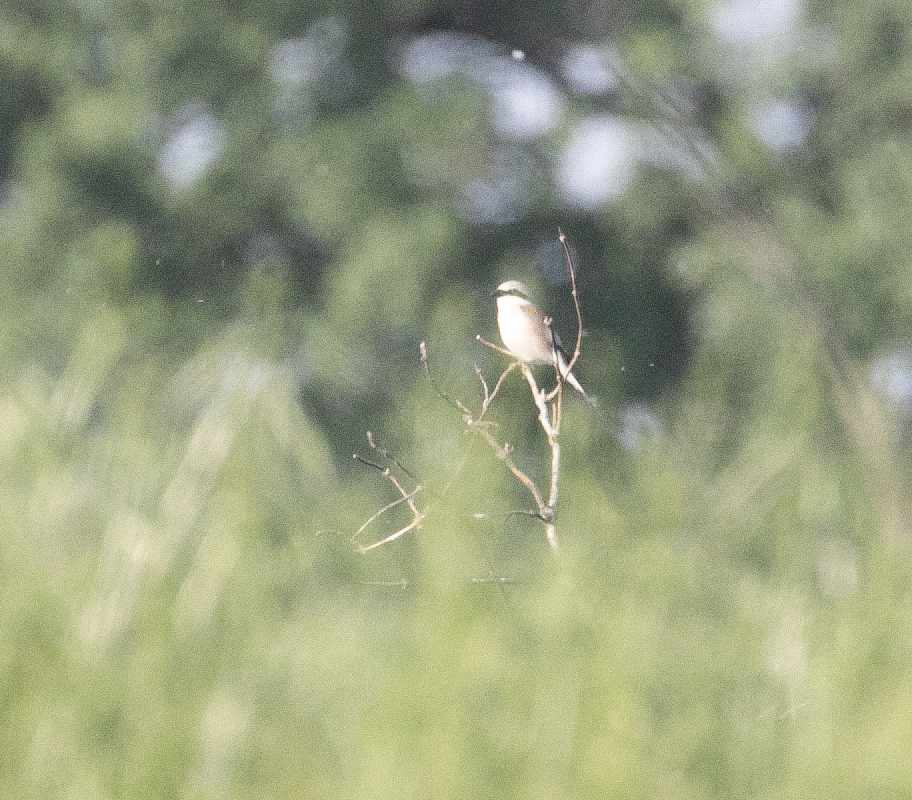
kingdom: Animalia
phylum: Chordata
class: Aves
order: Passeriformes
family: Laniidae
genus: Lanius
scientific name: Lanius collurio
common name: Red-backed shrike
